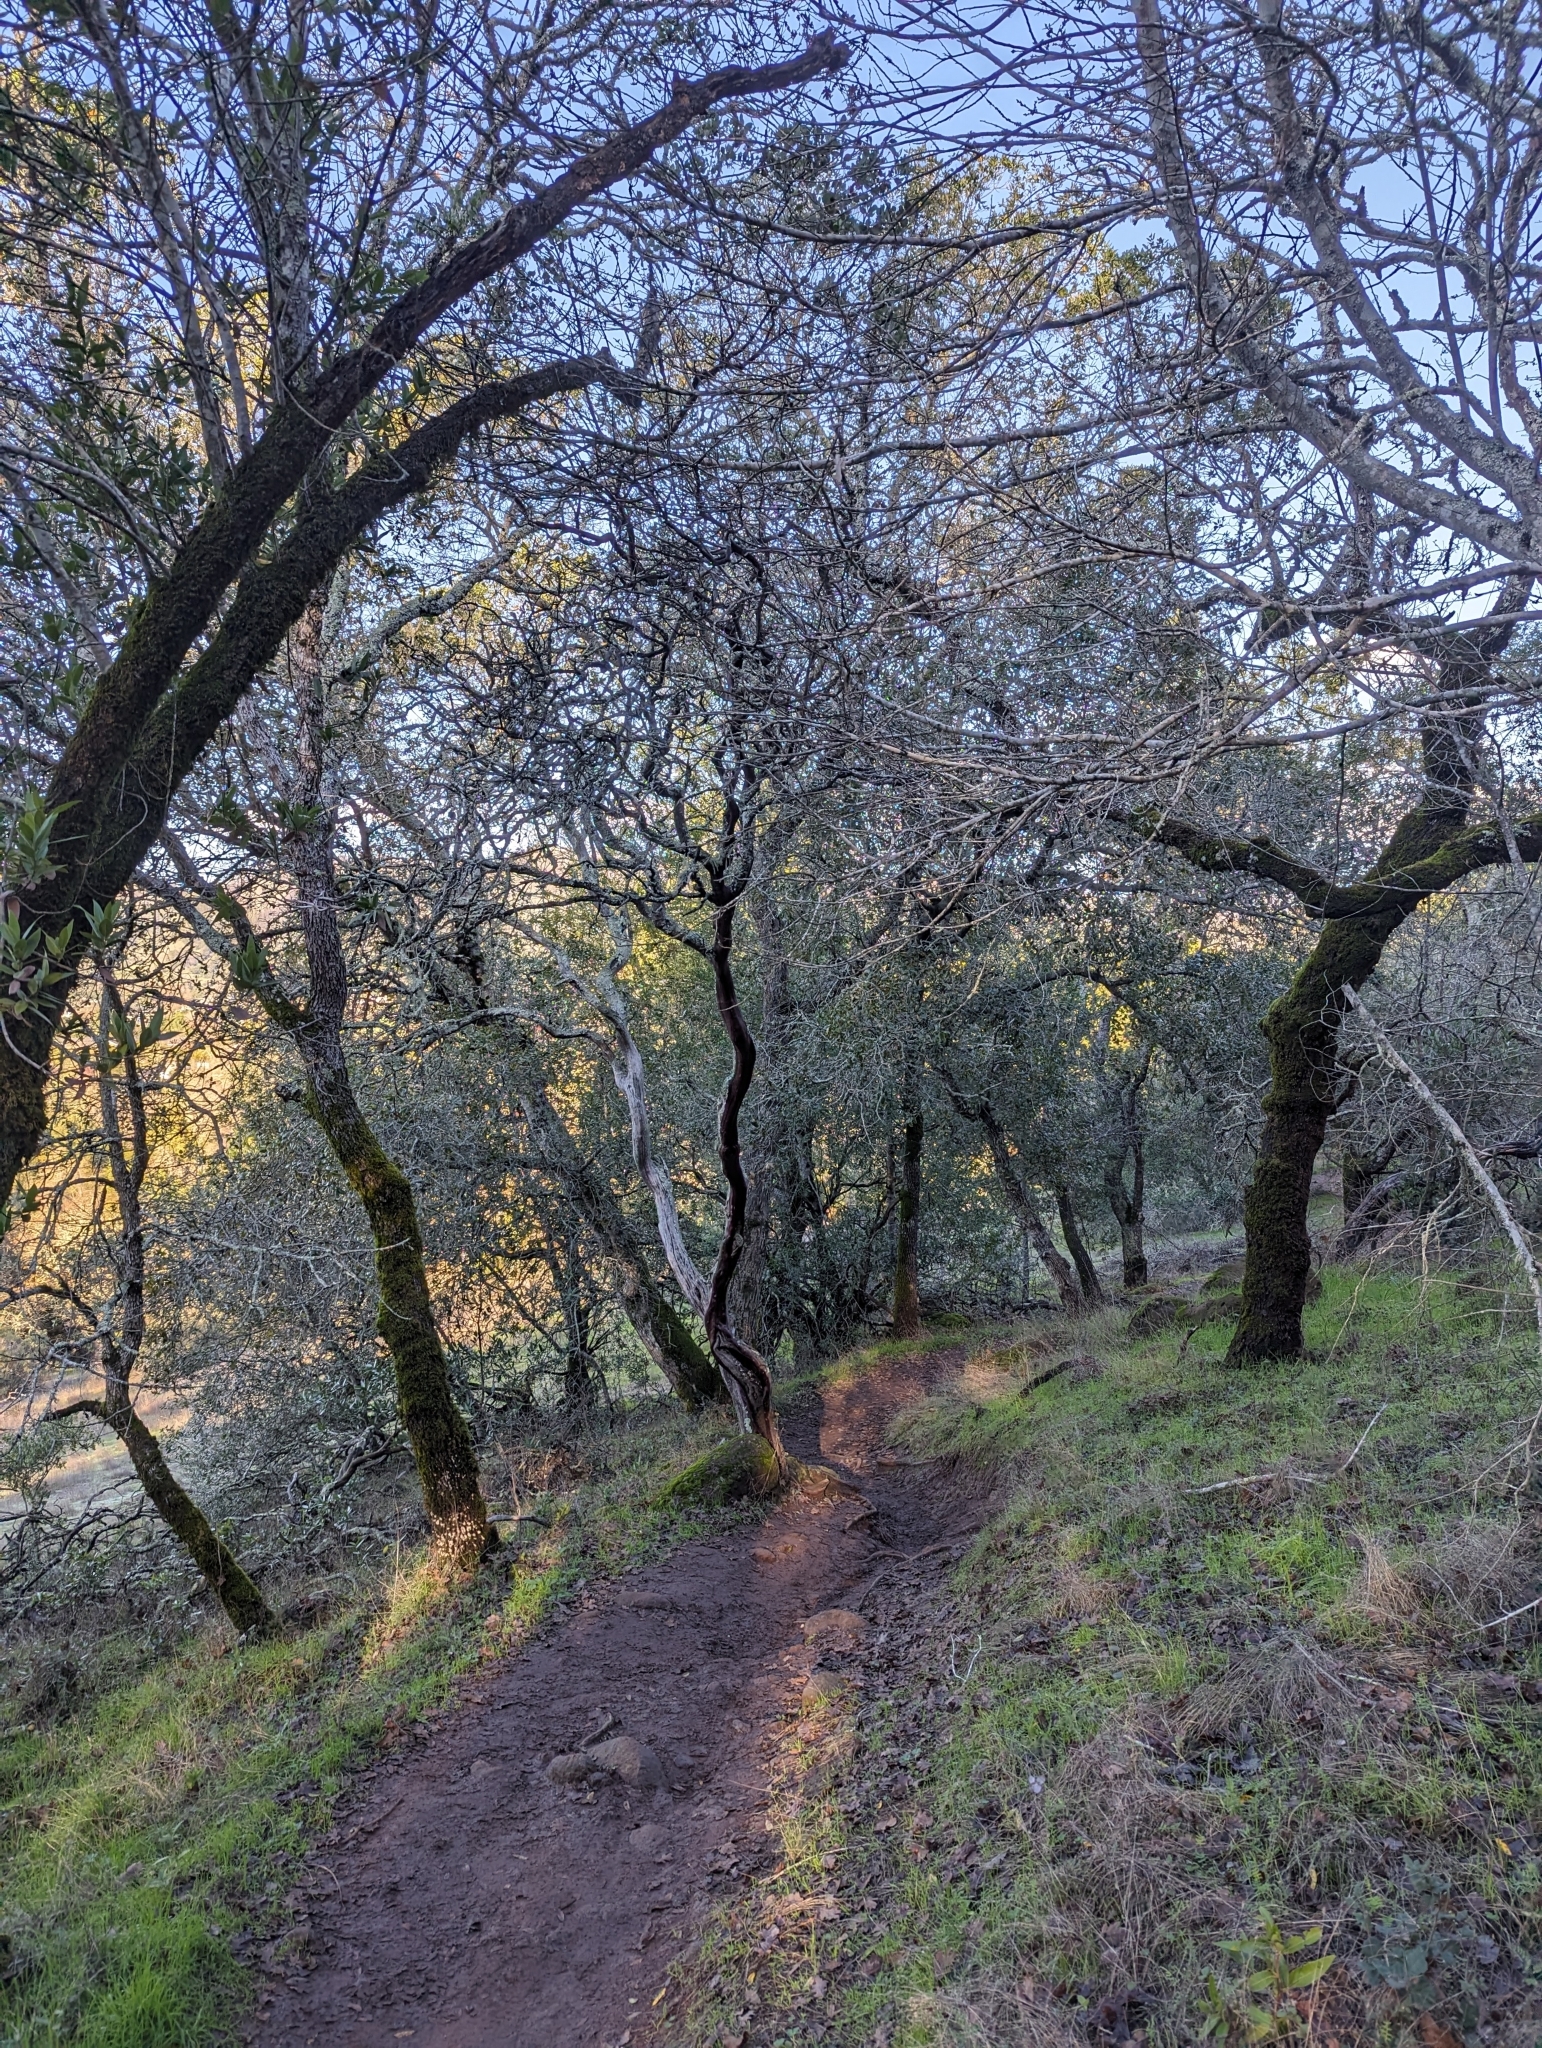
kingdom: Plantae
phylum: Tracheophyta
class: Magnoliopsida
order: Ericales
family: Ericaceae
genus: Arctostaphylos
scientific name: Arctostaphylos manzanita
